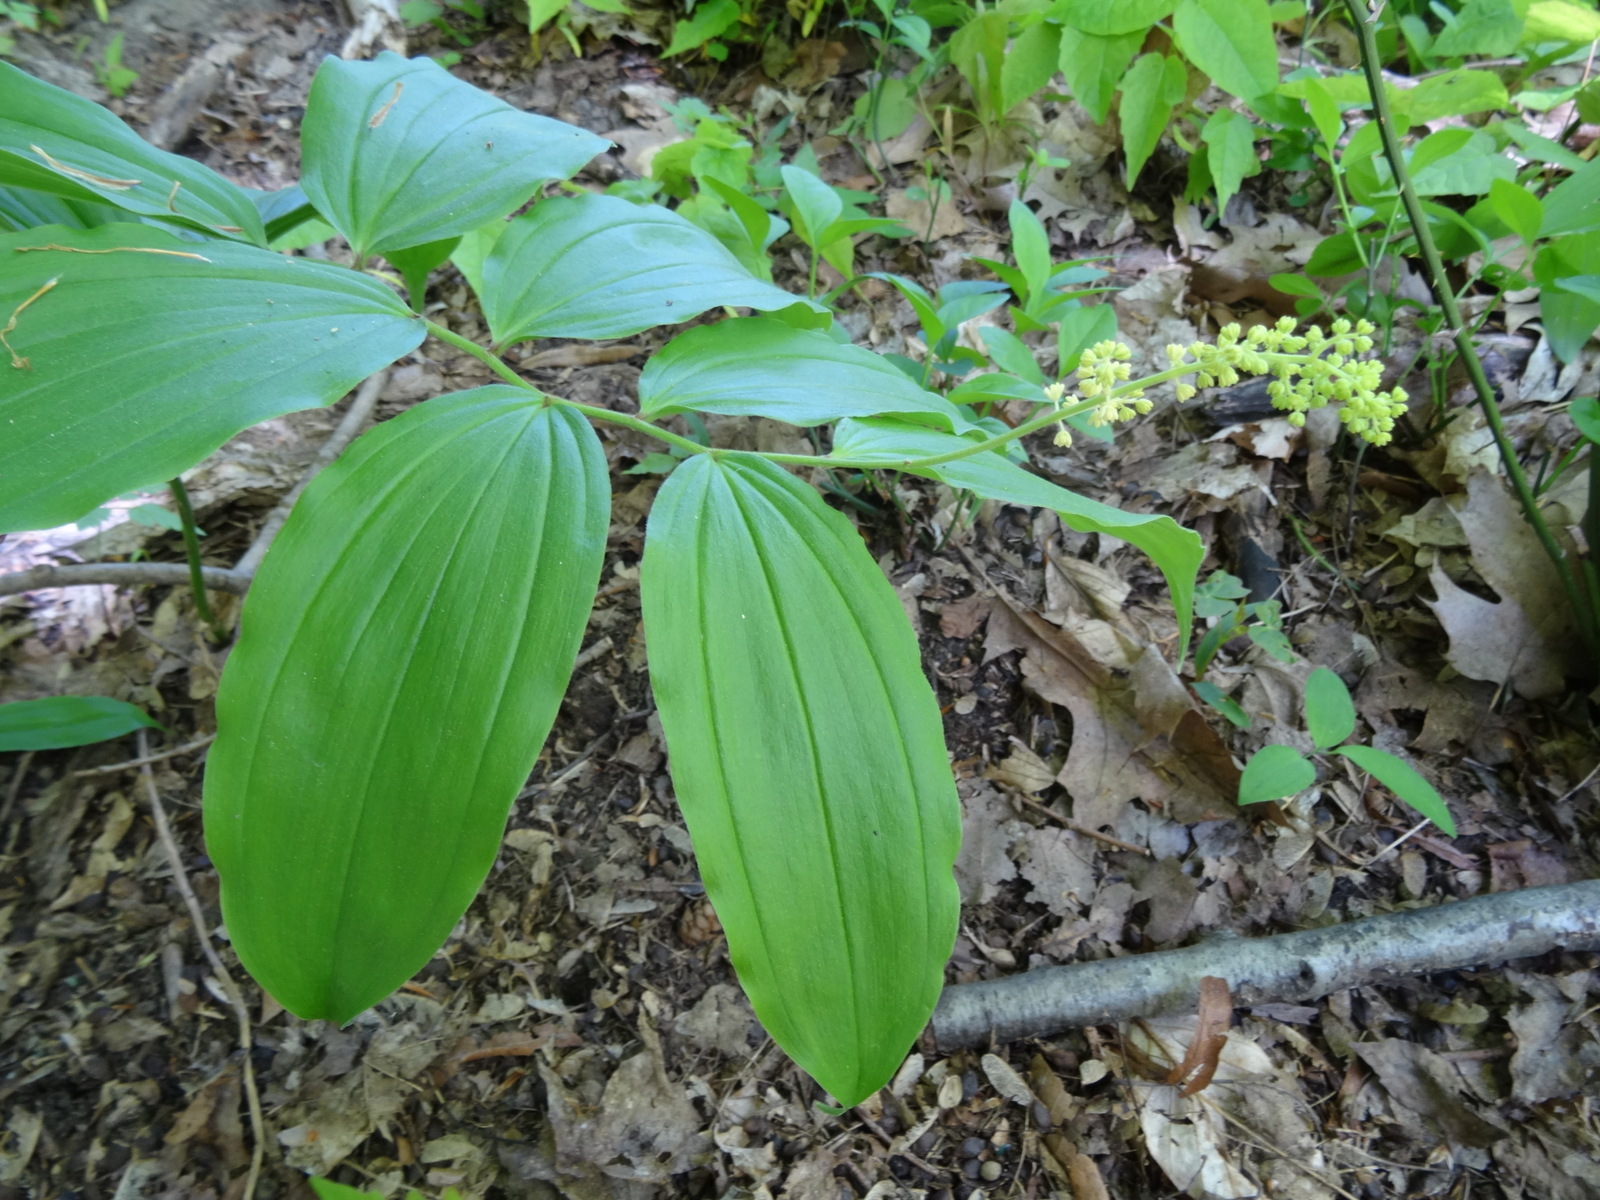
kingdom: Plantae
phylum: Tracheophyta
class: Liliopsida
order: Asparagales
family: Asparagaceae
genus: Maianthemum
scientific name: Maianthemum racemosum
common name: False spikenard
